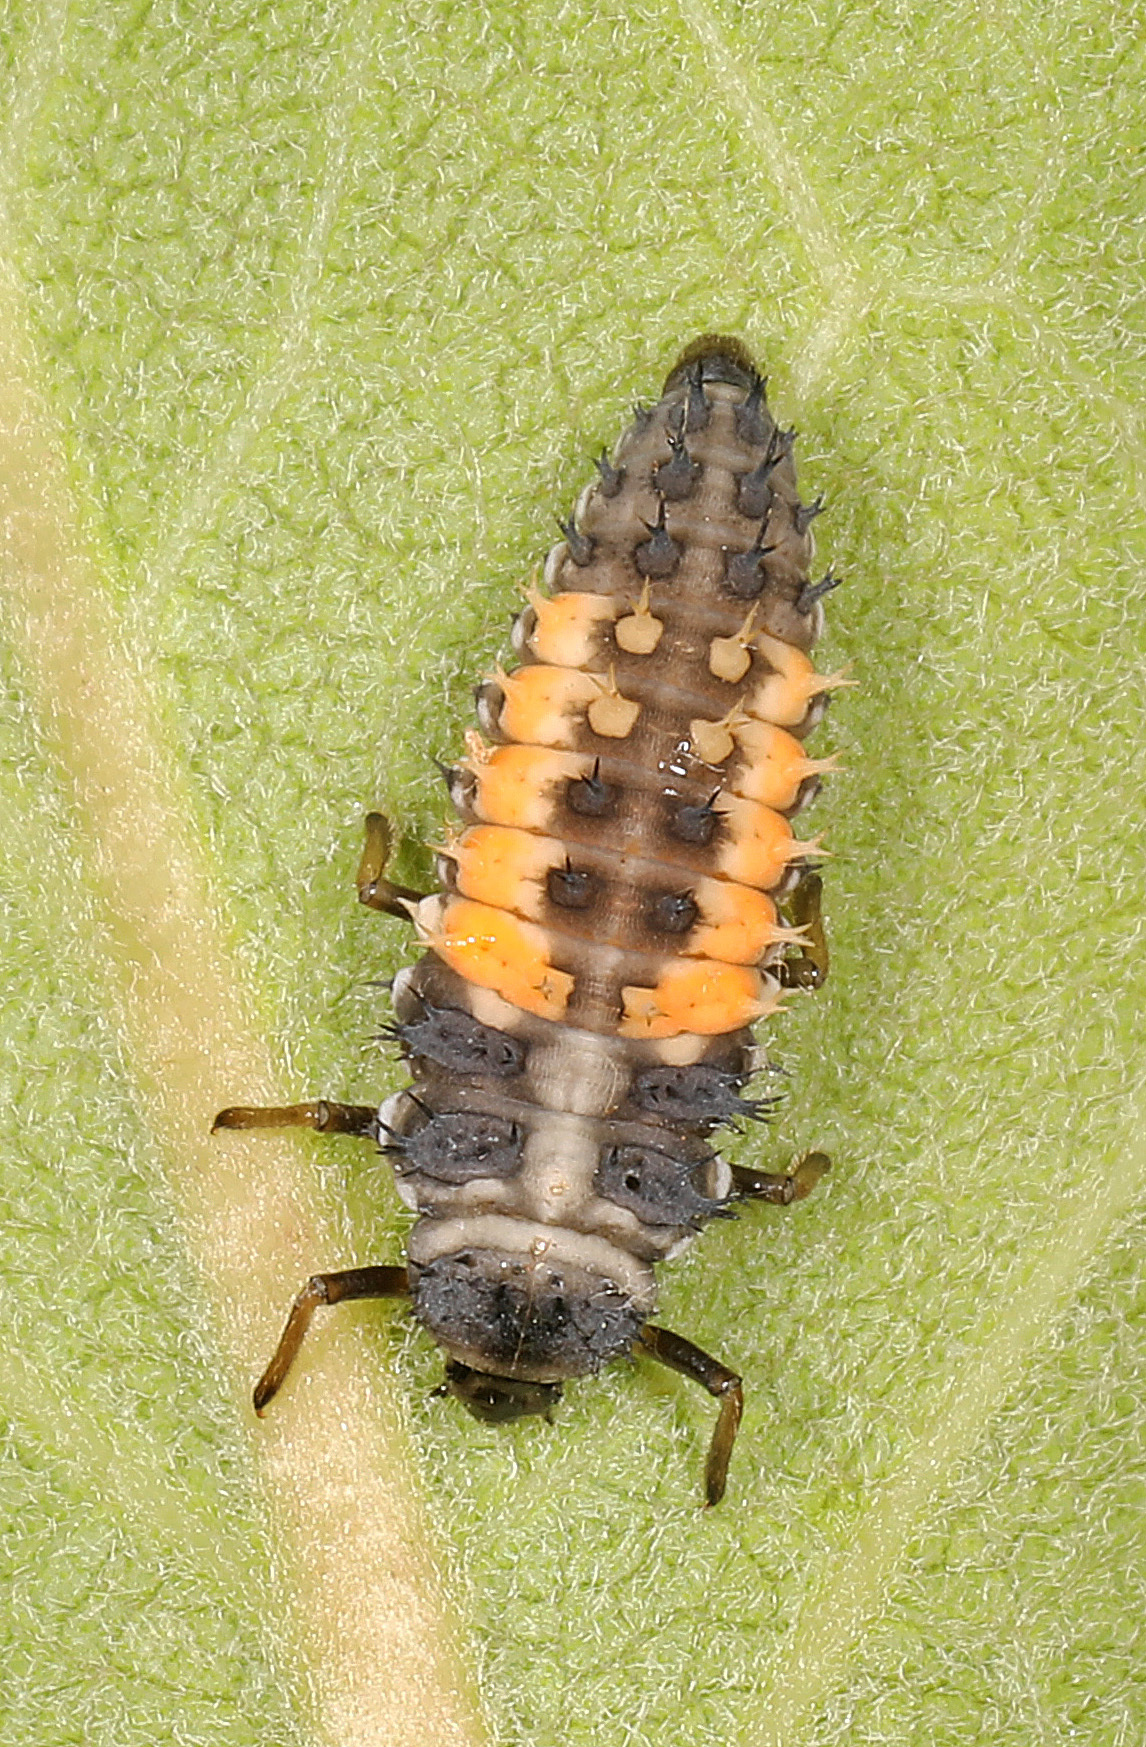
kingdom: Animalia
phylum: Arthropoda
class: Insecta
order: Coleoptera
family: Coccinellidae
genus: Harmonia
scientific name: Harmonia axyridis
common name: Harlequin ladybird
